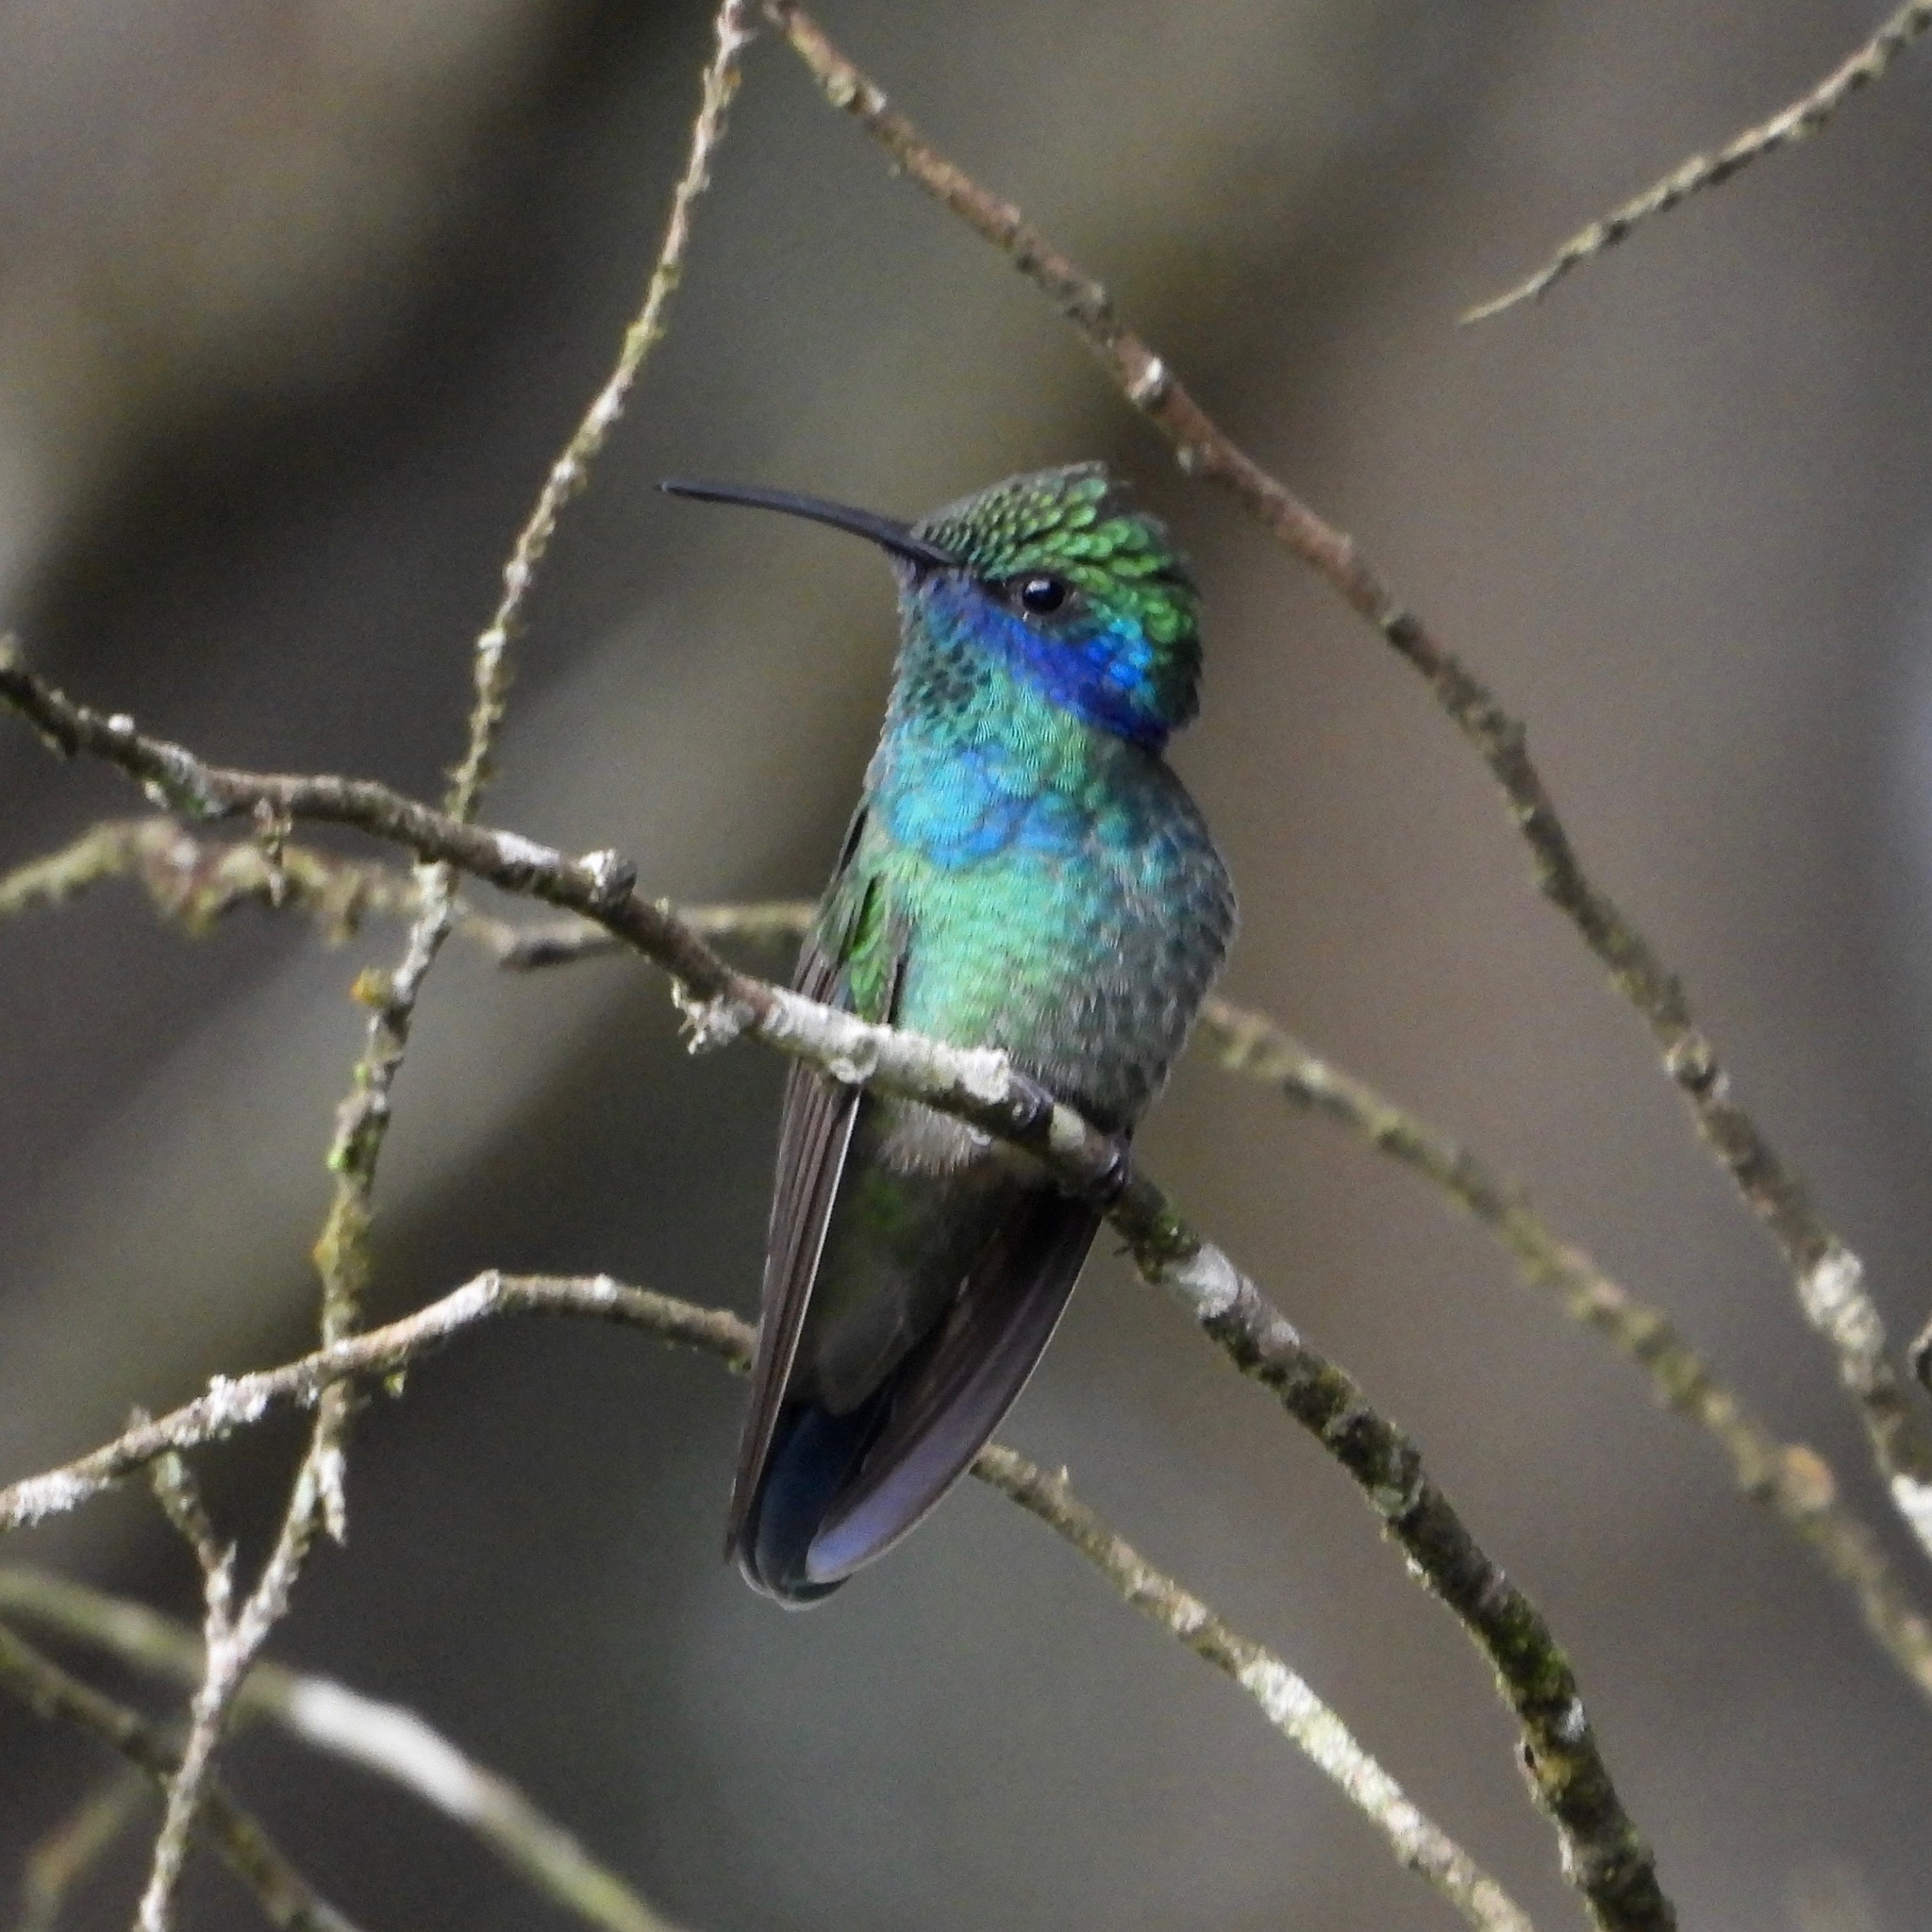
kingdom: Animalia
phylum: Chordata
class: Aves
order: Apodiformes
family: Trochilidae
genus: Colibri
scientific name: Colibri thalassinus
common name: Green violetear
